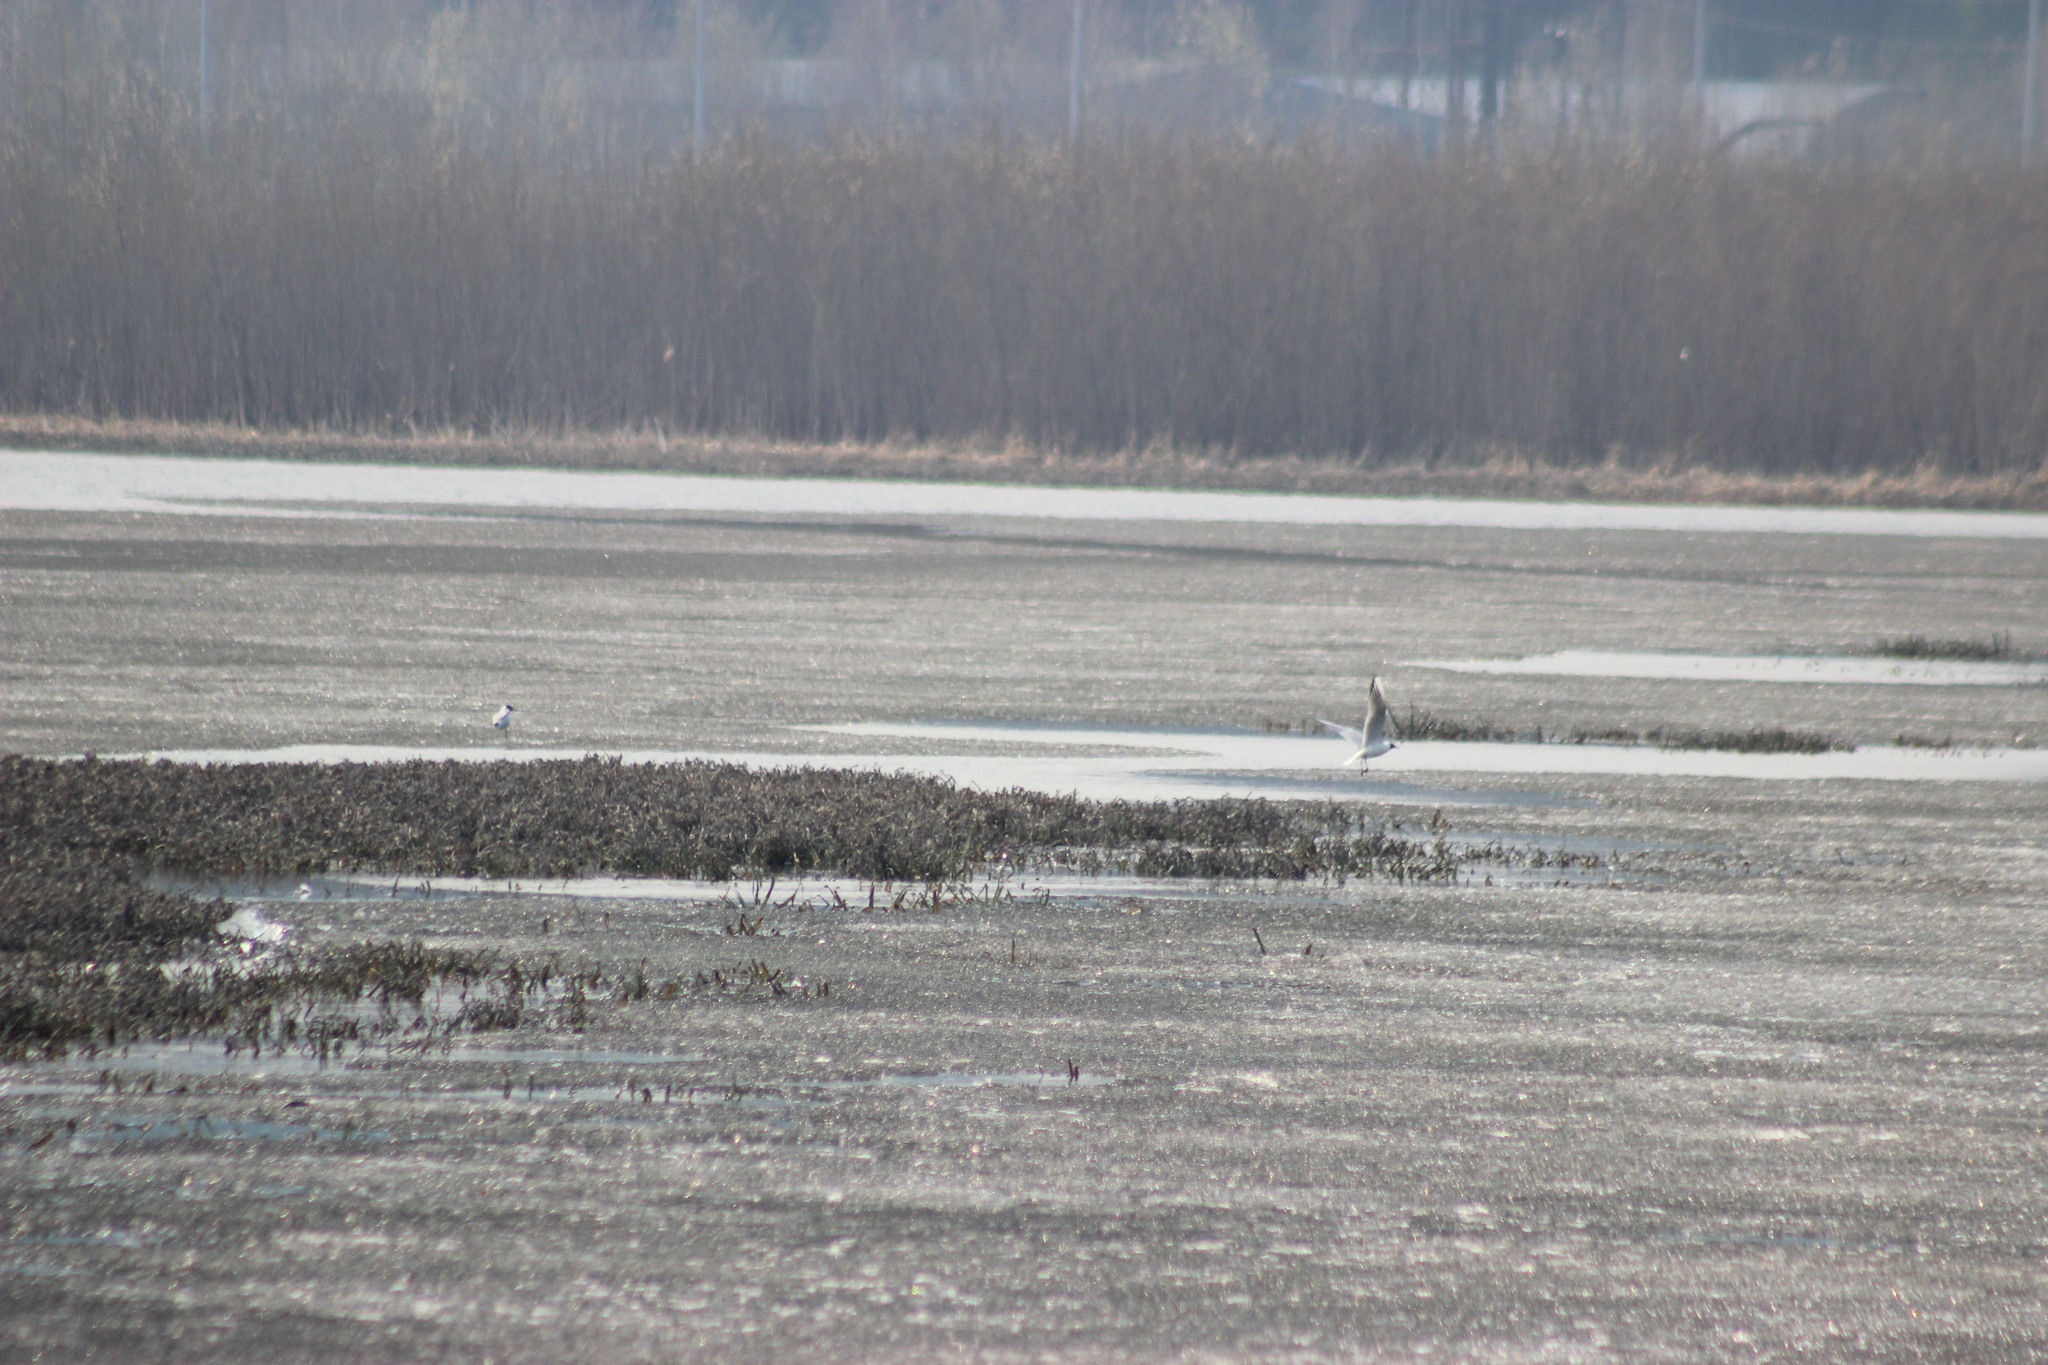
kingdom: Animalia
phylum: Chordata
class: Aves
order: Charadriiformes
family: Laridae
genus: Chroicocephalus
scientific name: Chroicocephalus ridibundus
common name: Black-headed gull
